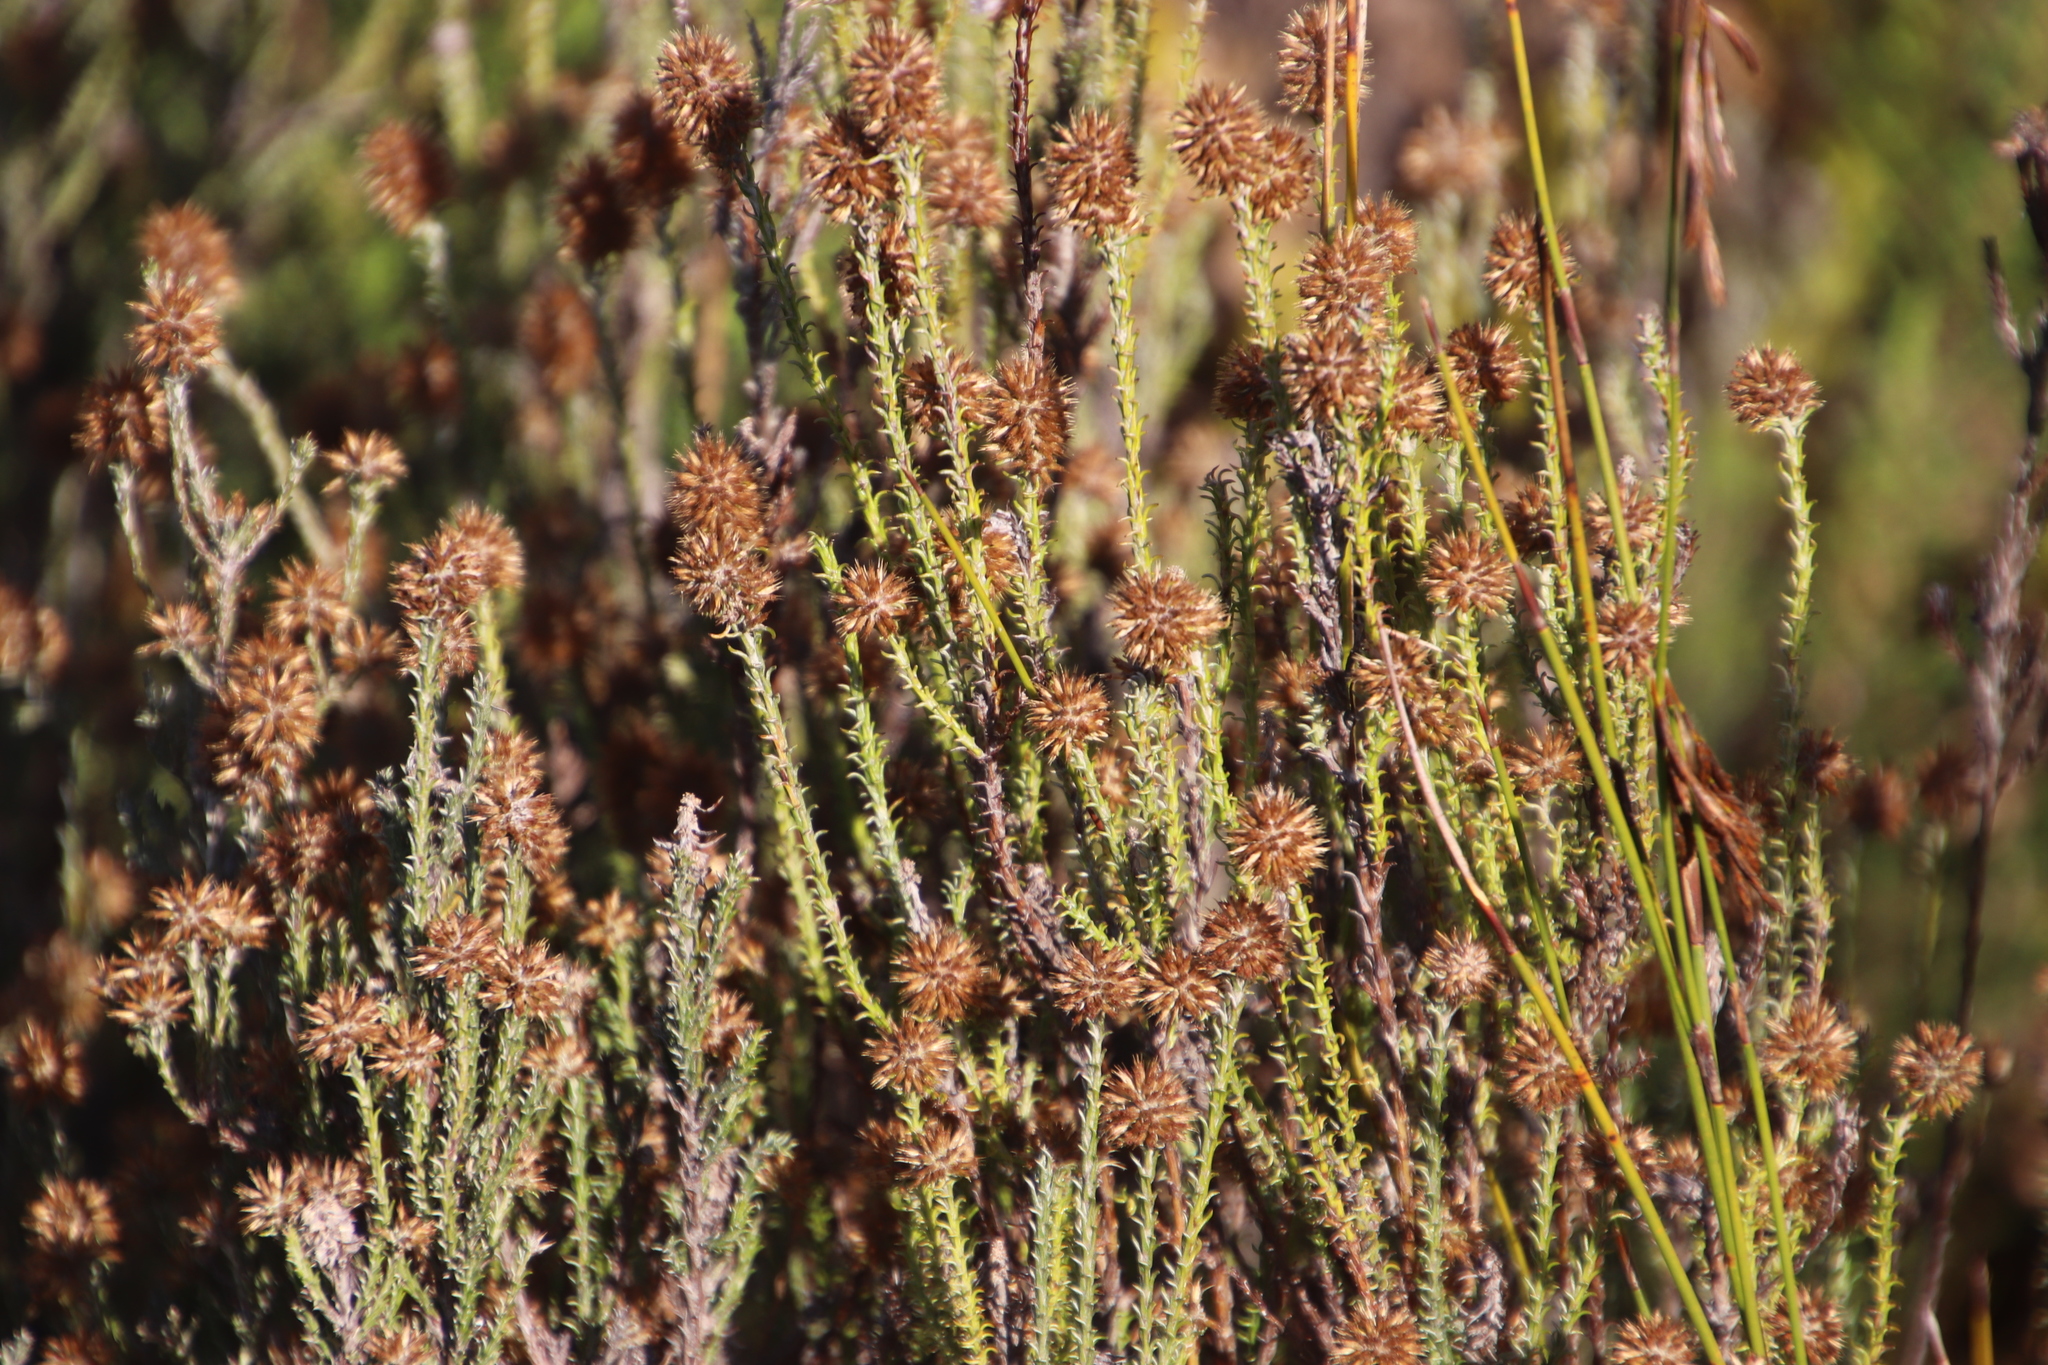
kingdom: Plantae
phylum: Tracheophyta
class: Magnoliopsida
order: Asterales
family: Asteraceae
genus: Seriphium
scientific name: Seriphium cinereum
